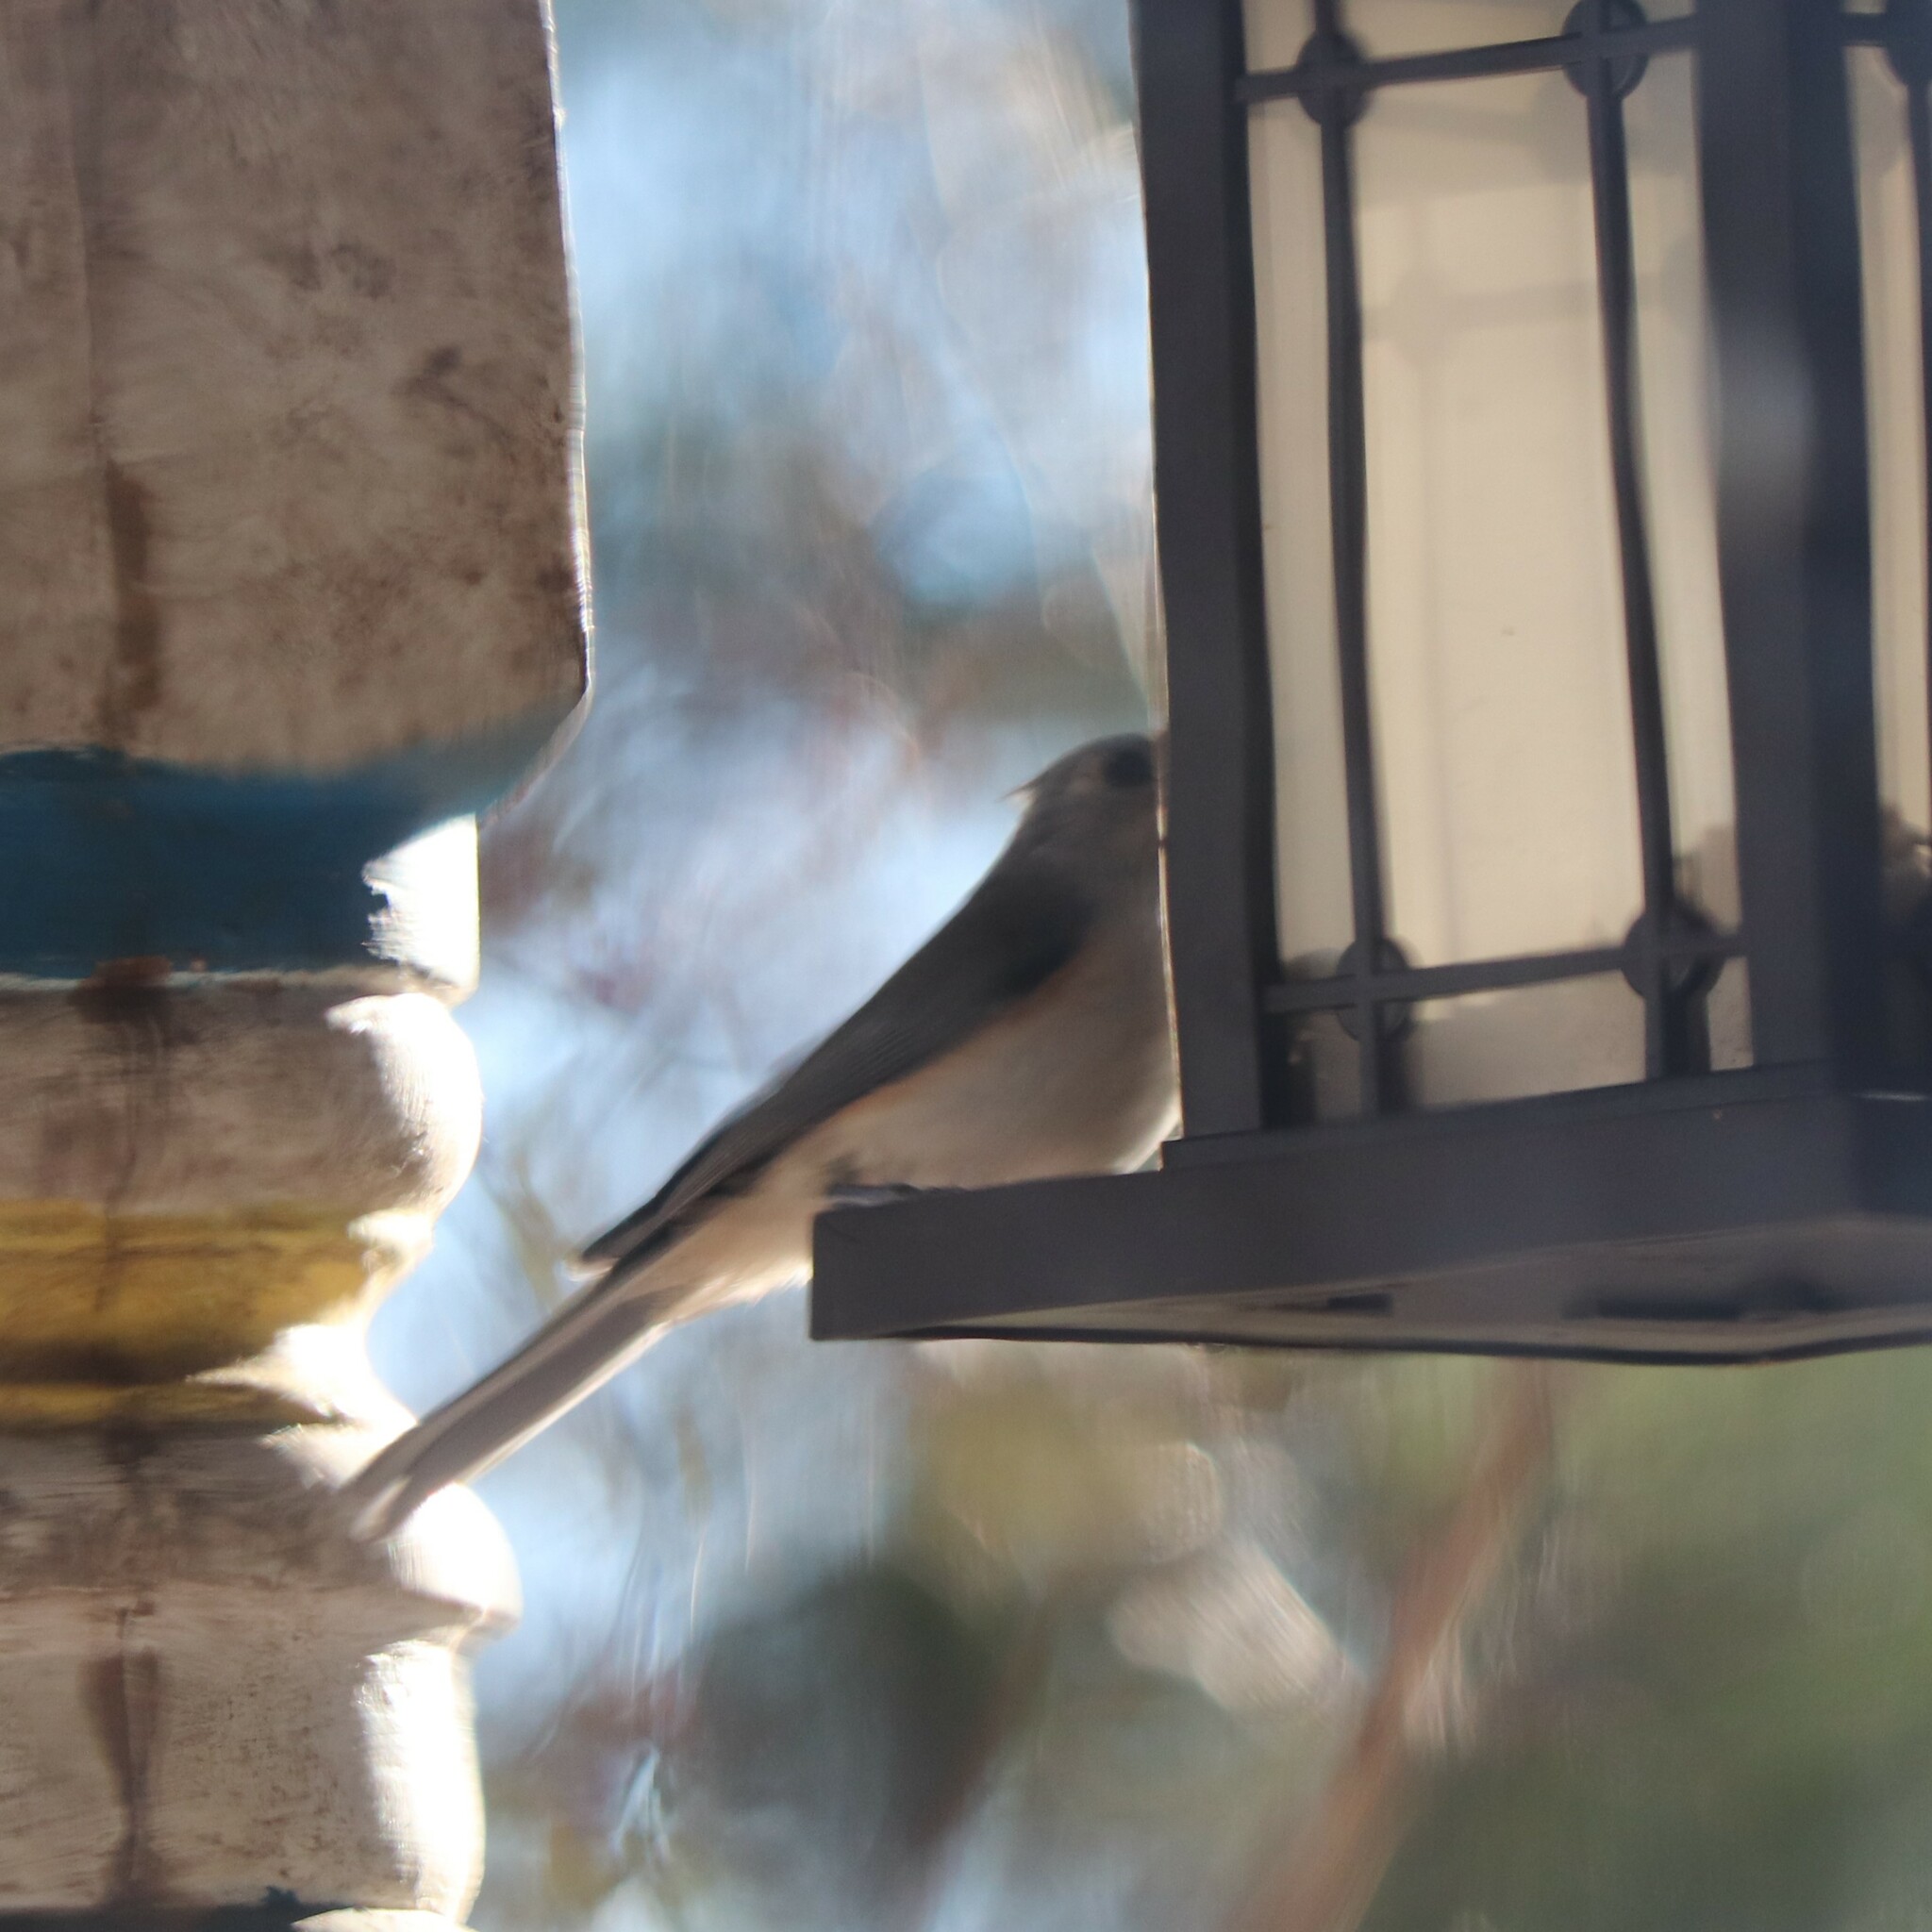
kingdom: Animalia
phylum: Chordata
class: Aves
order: Passeriformes
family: Paridae
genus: Baeolophus
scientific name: Baeolophus bicolor
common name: Tufted titmouse
